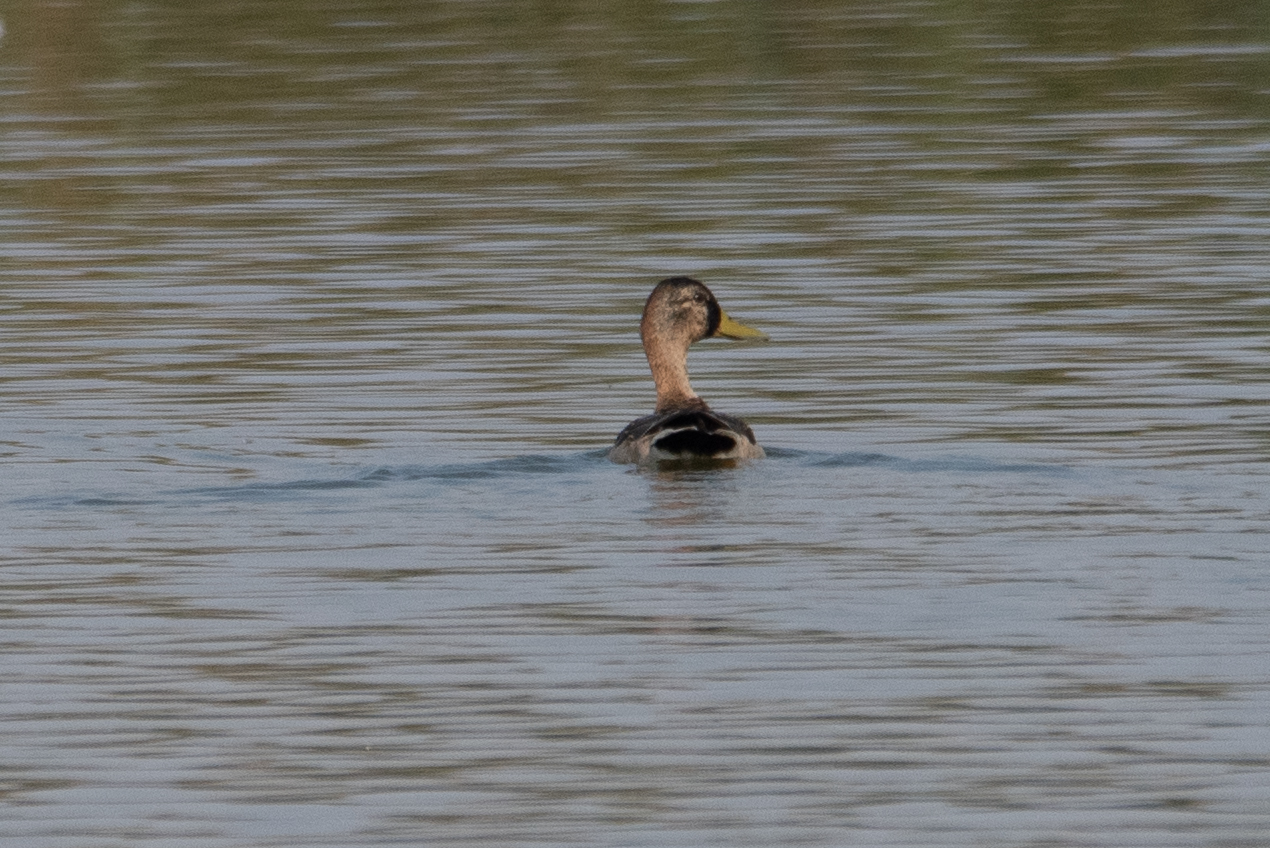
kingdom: Animalia
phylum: Chordata
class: Aves
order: Anseriformes
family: Anatidae
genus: Anas
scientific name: Anas platyrhynchos
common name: Mallard
